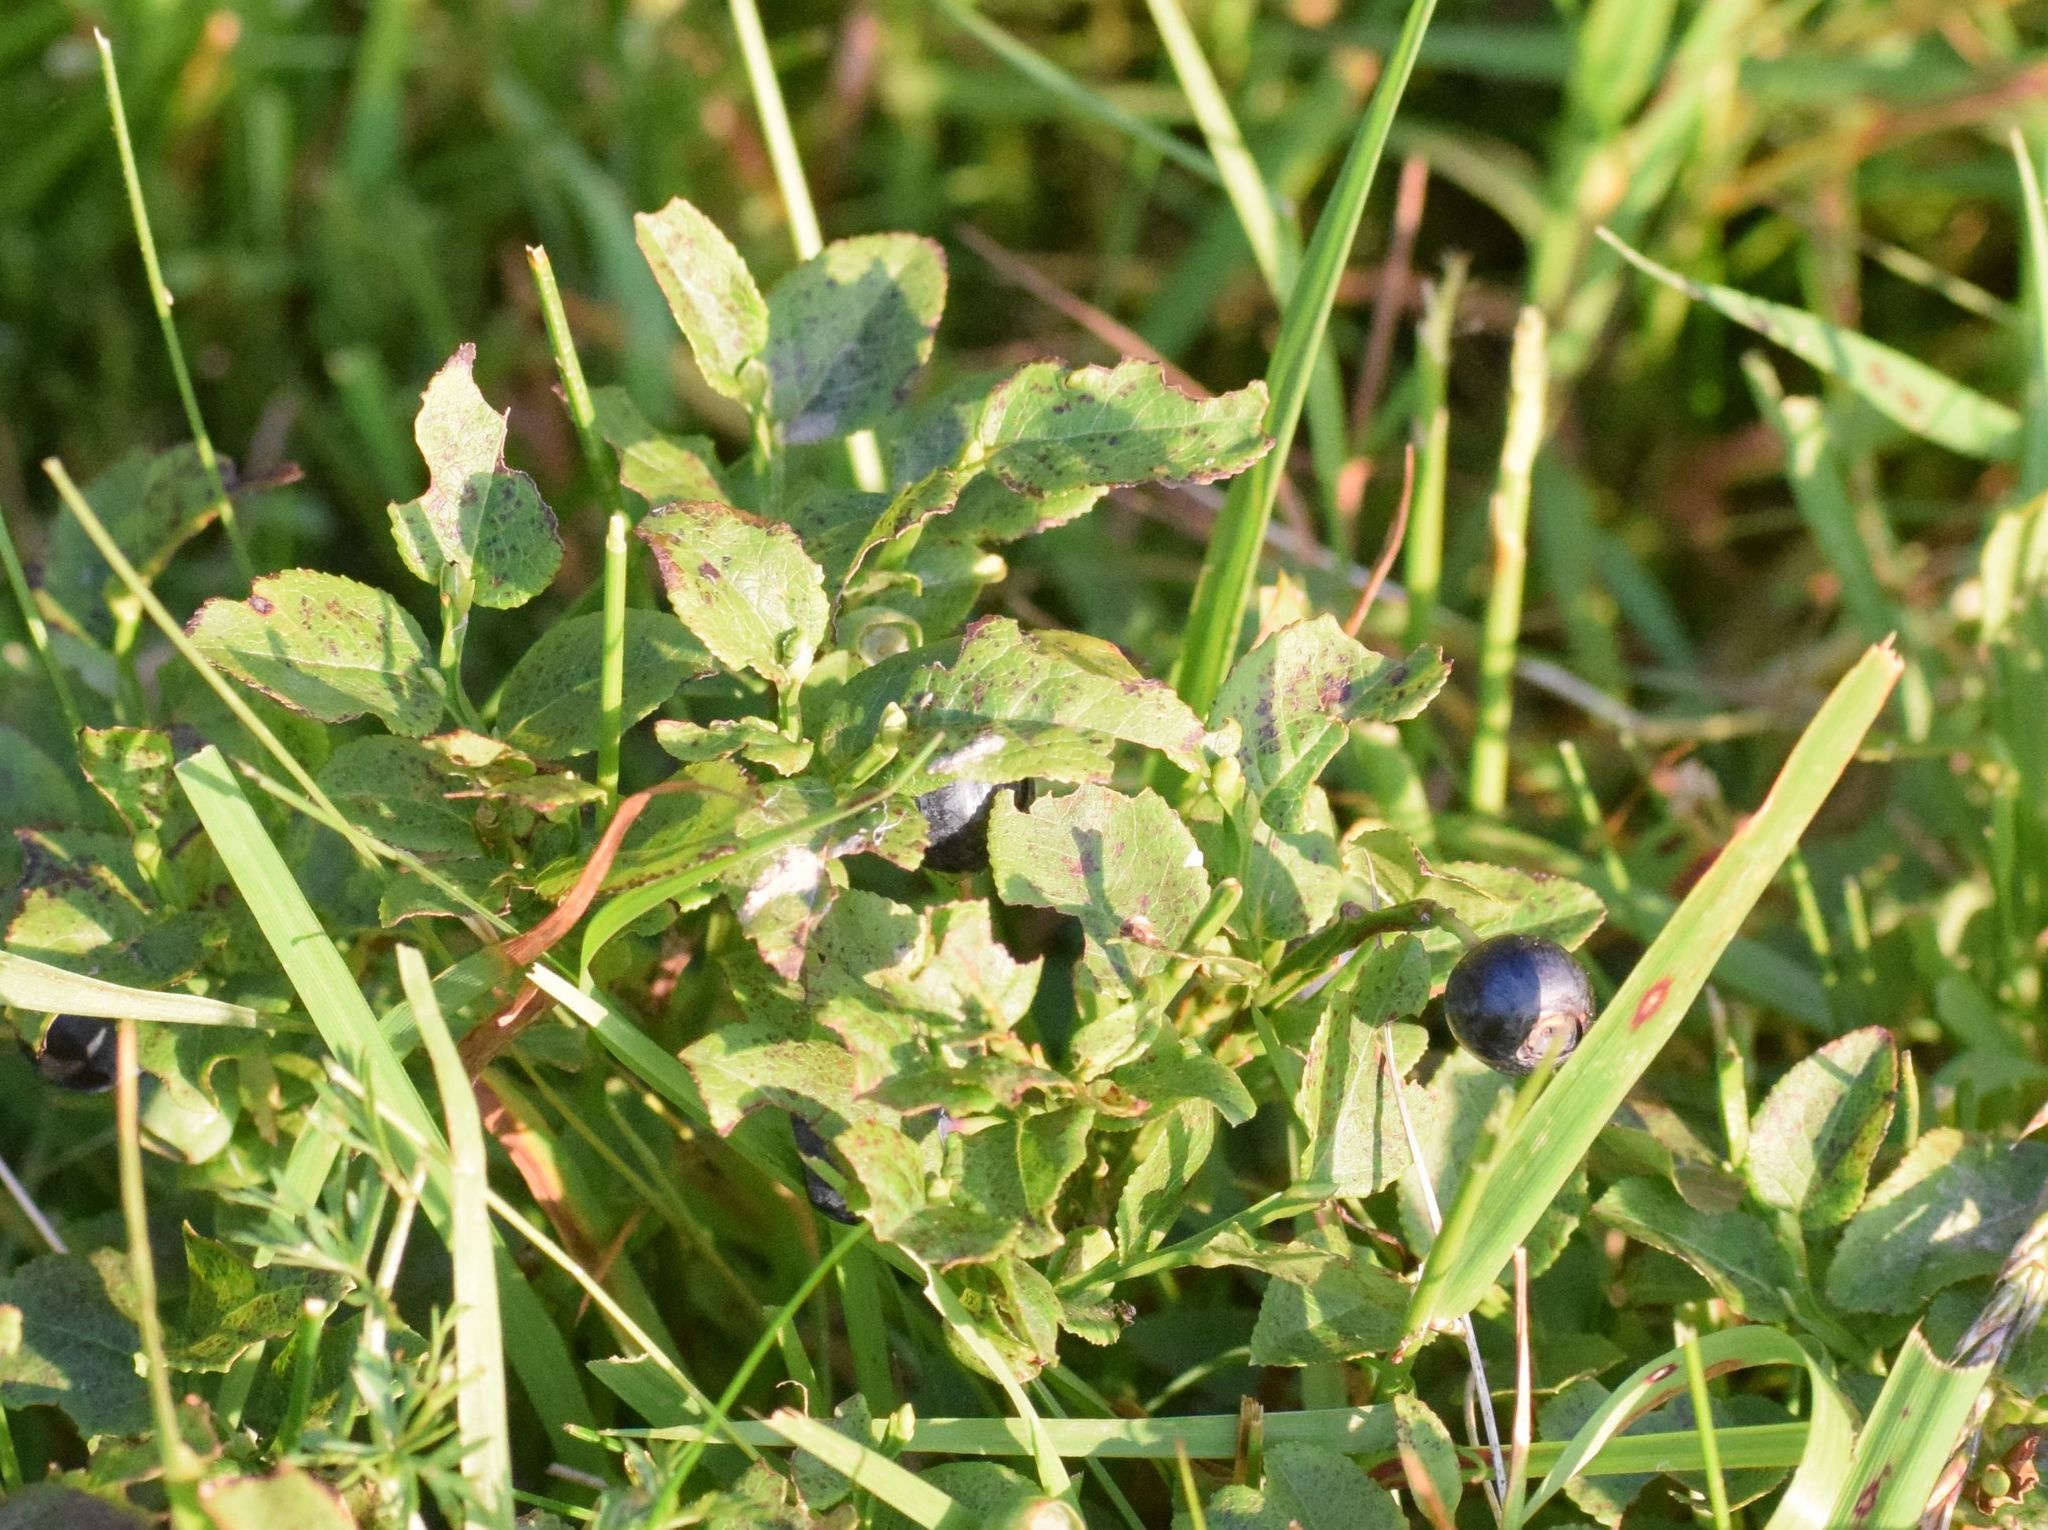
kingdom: Plantae
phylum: Tracheophyta
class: Magnoliopsida
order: Ericales
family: Ericaceae
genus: Vaccinium
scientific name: Vaccinium myrtillus
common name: Bilberry
